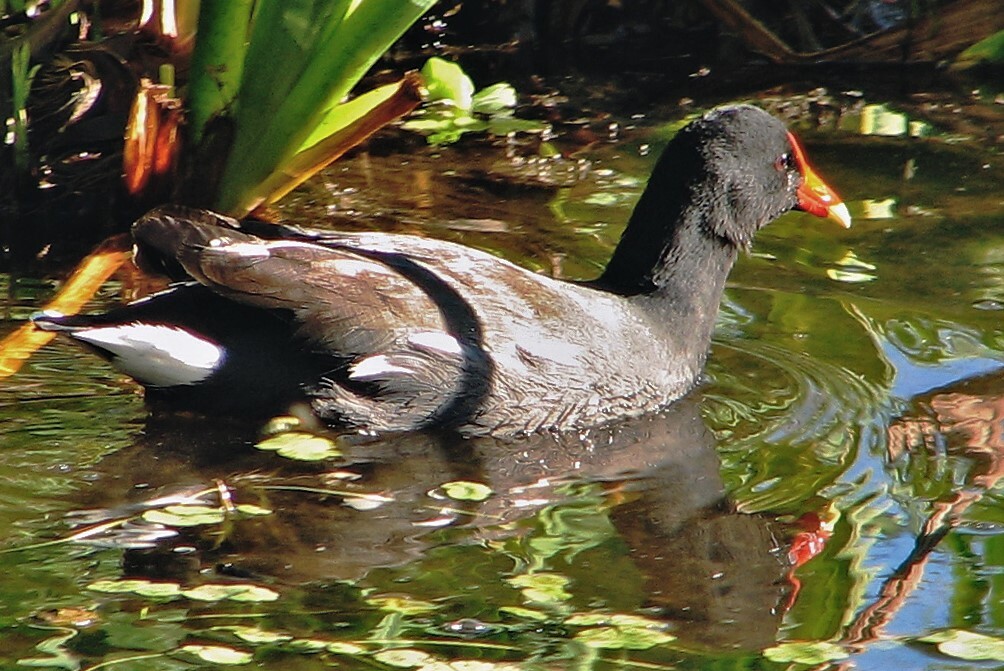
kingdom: Animalia
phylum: Chordata
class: Aves
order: Gruiformes
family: Rallidae
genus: Gallinula
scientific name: Gallinula chloropus
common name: Common moorhen
